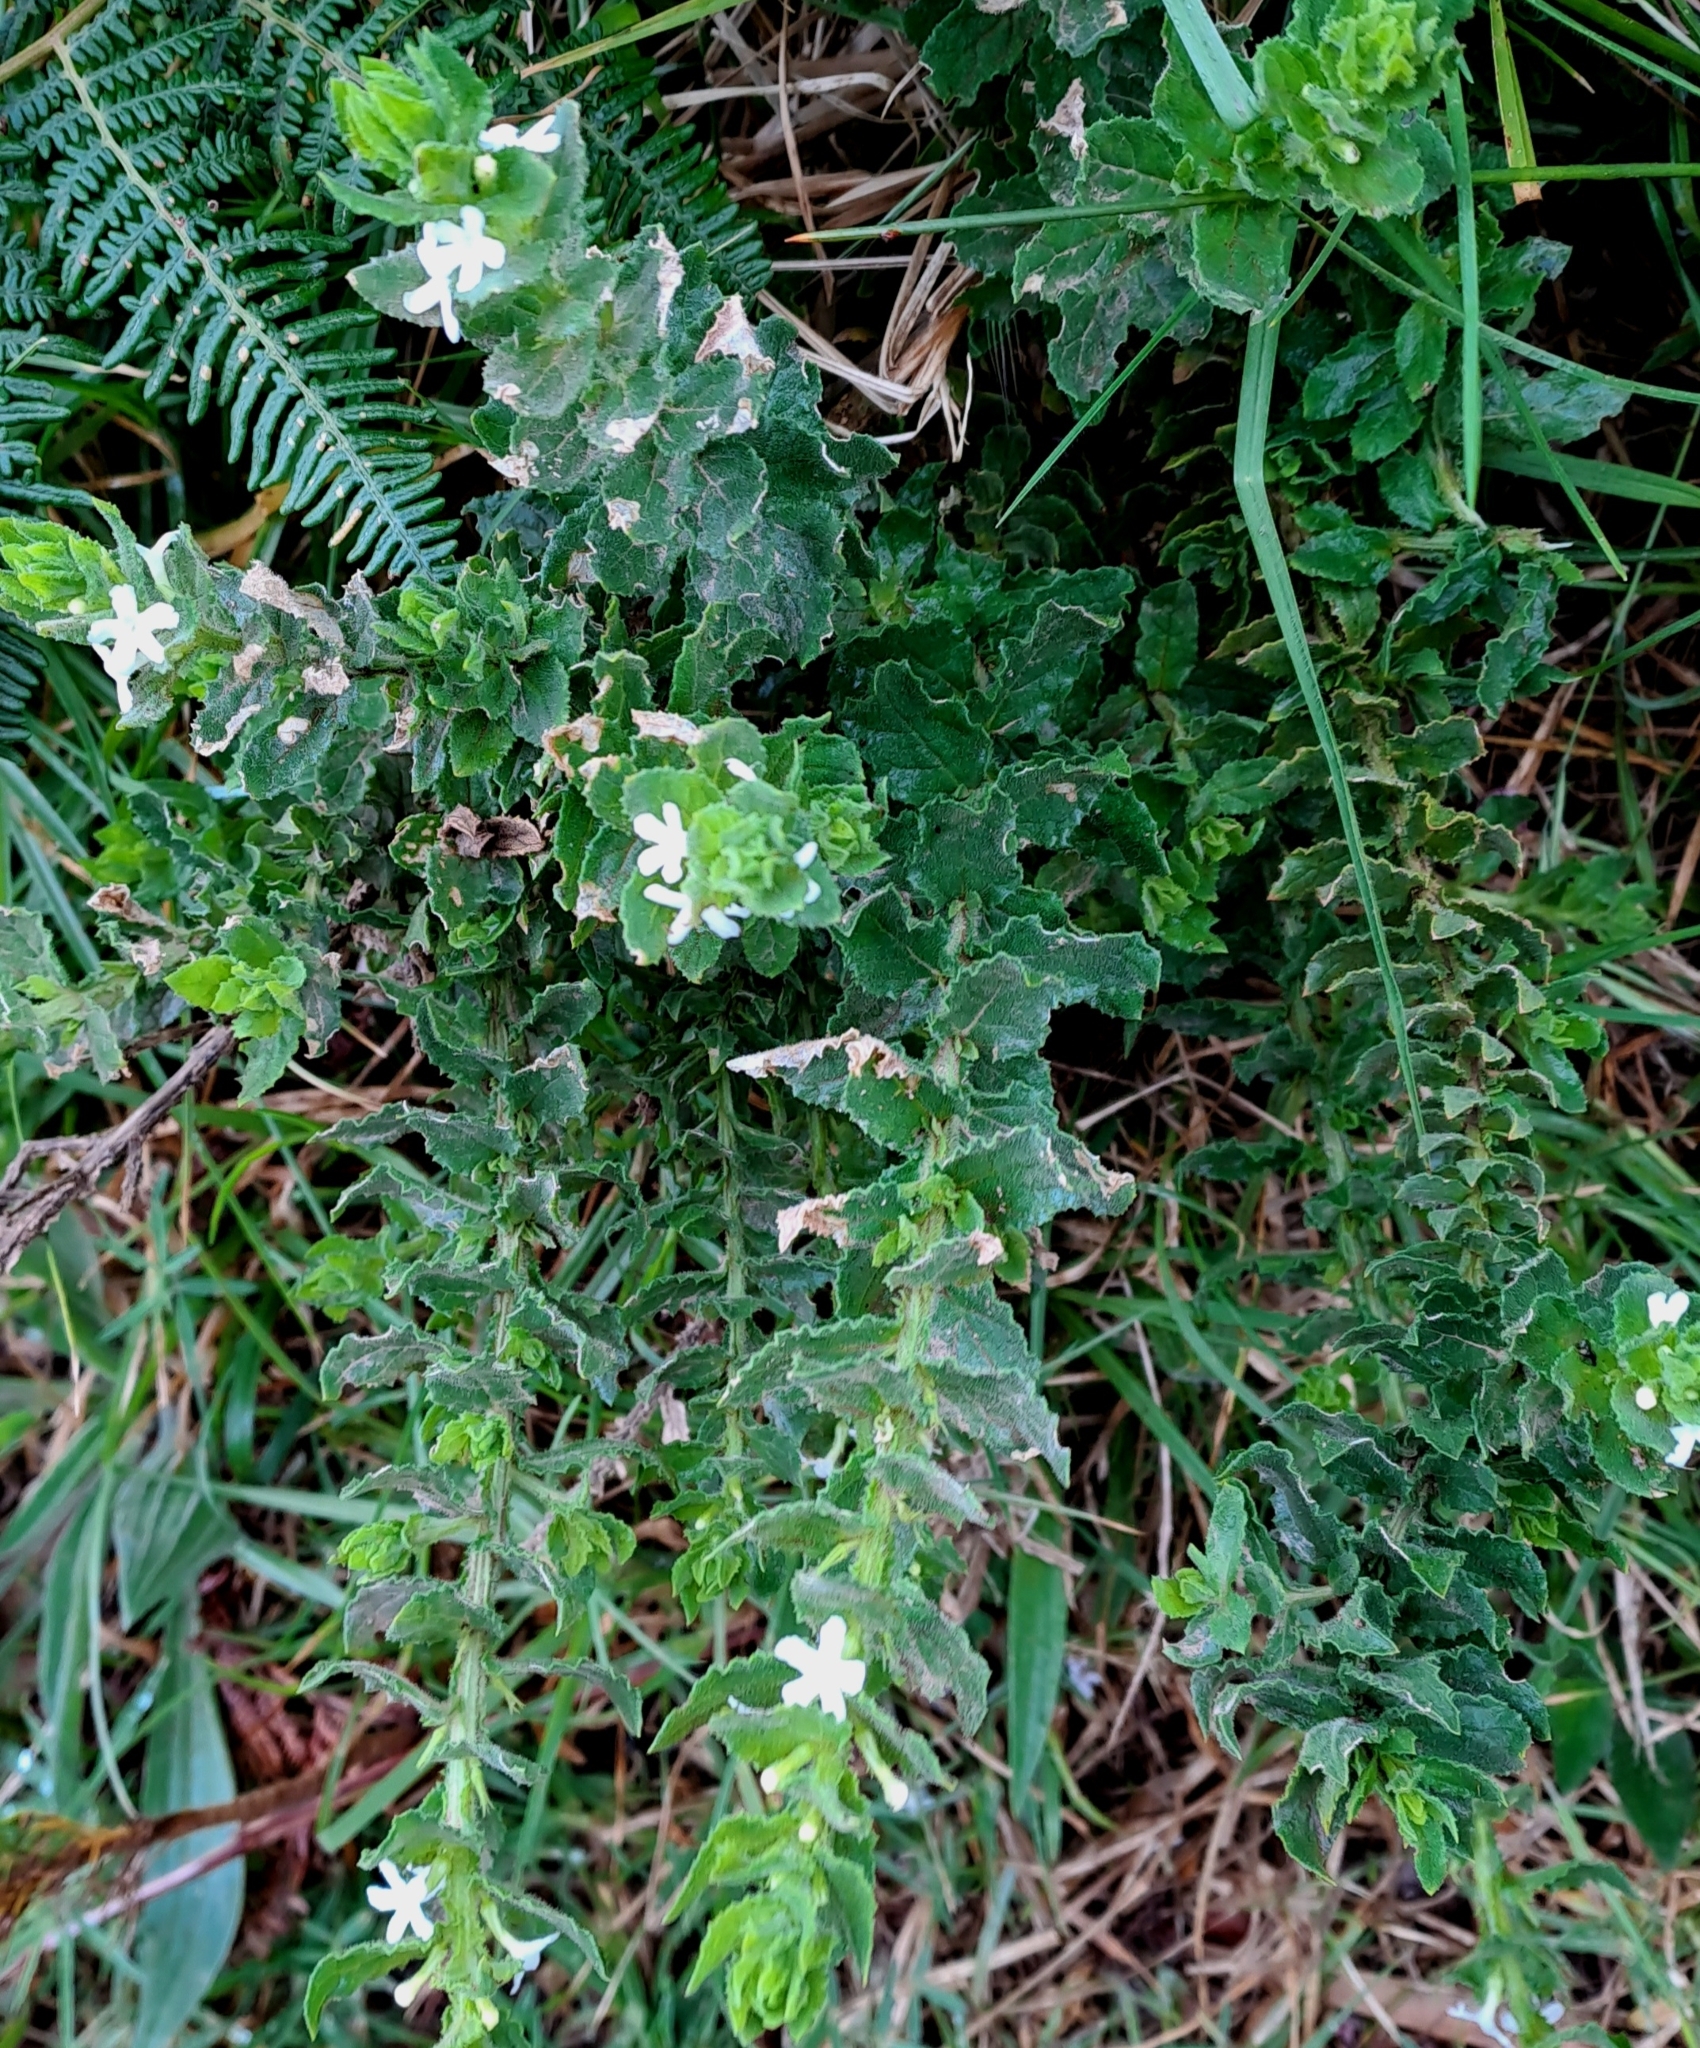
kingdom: Plantae
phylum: Tracheophyta
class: Magnoliopsida
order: Lamiales
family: Scrophulariaceae
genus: Oftia
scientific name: Oftia africana
